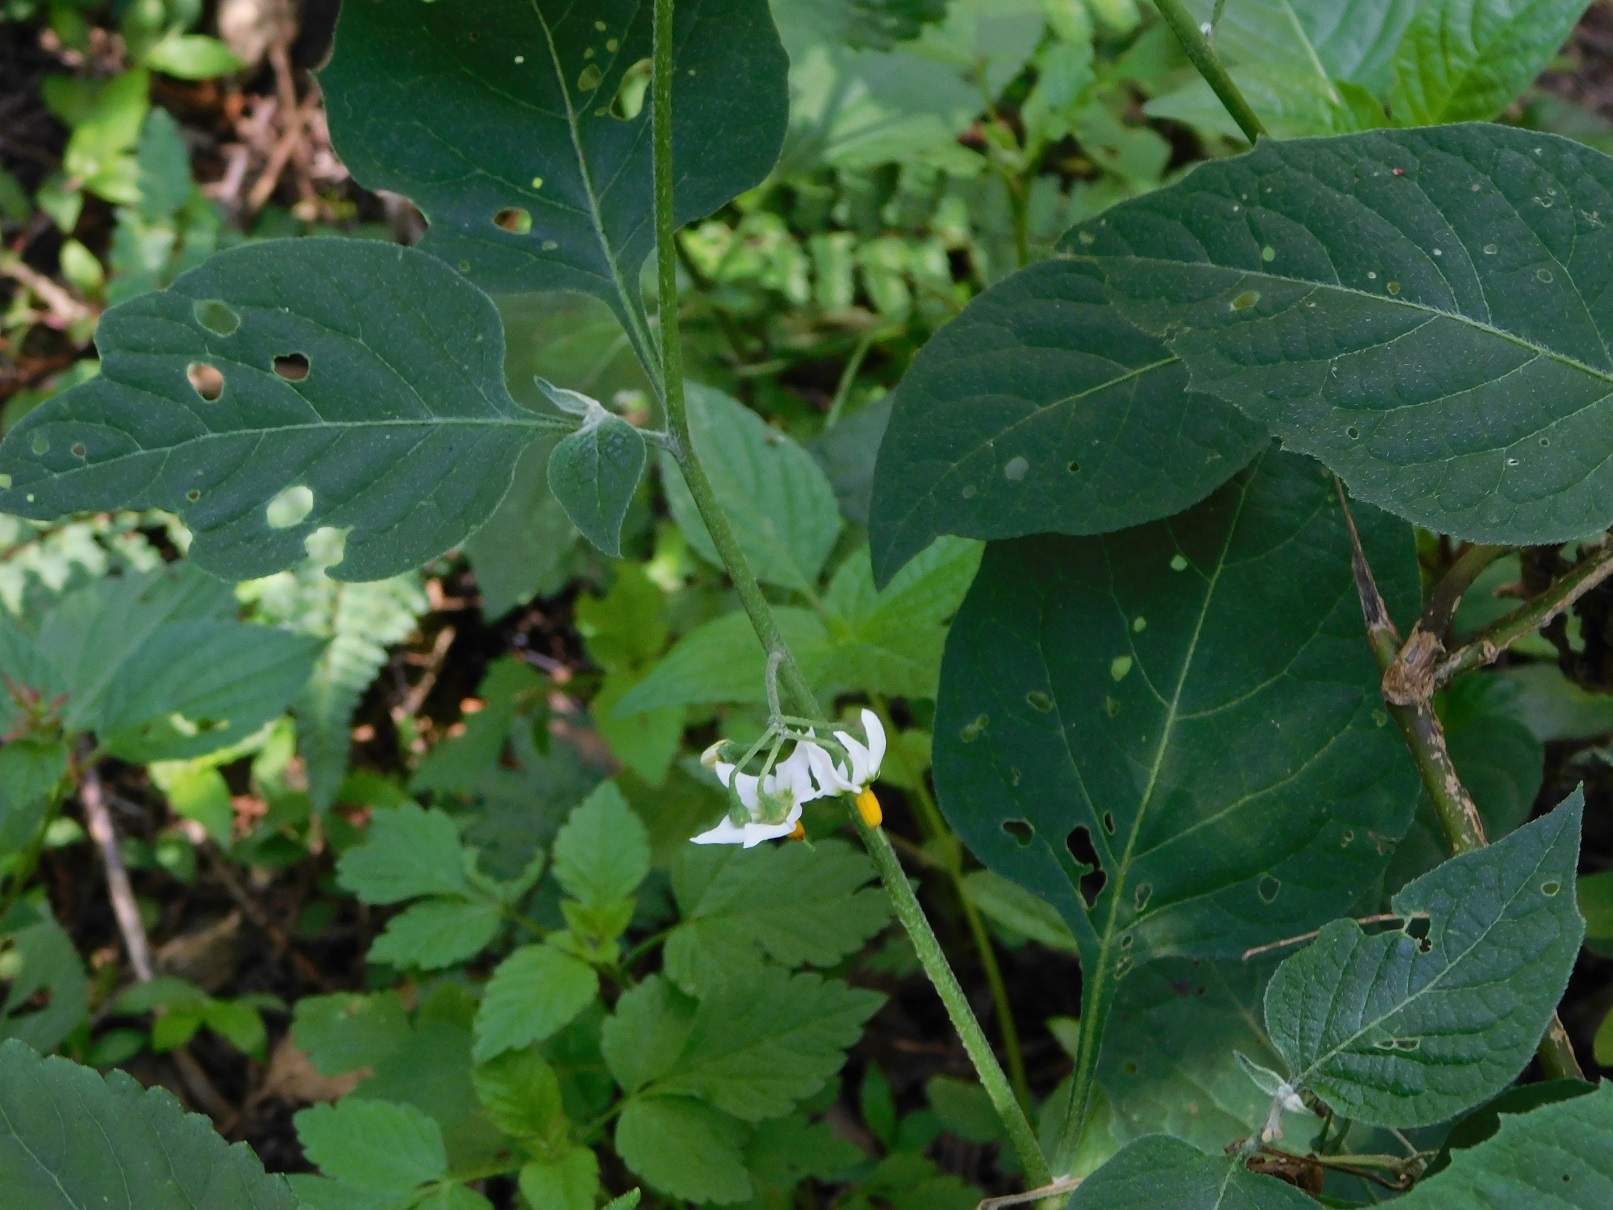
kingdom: Plantae
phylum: Tracheophyta
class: Magnoliopsida
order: Solanales
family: Solanaceae
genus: Solanum
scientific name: Solanum americanum
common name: American black nightshade
